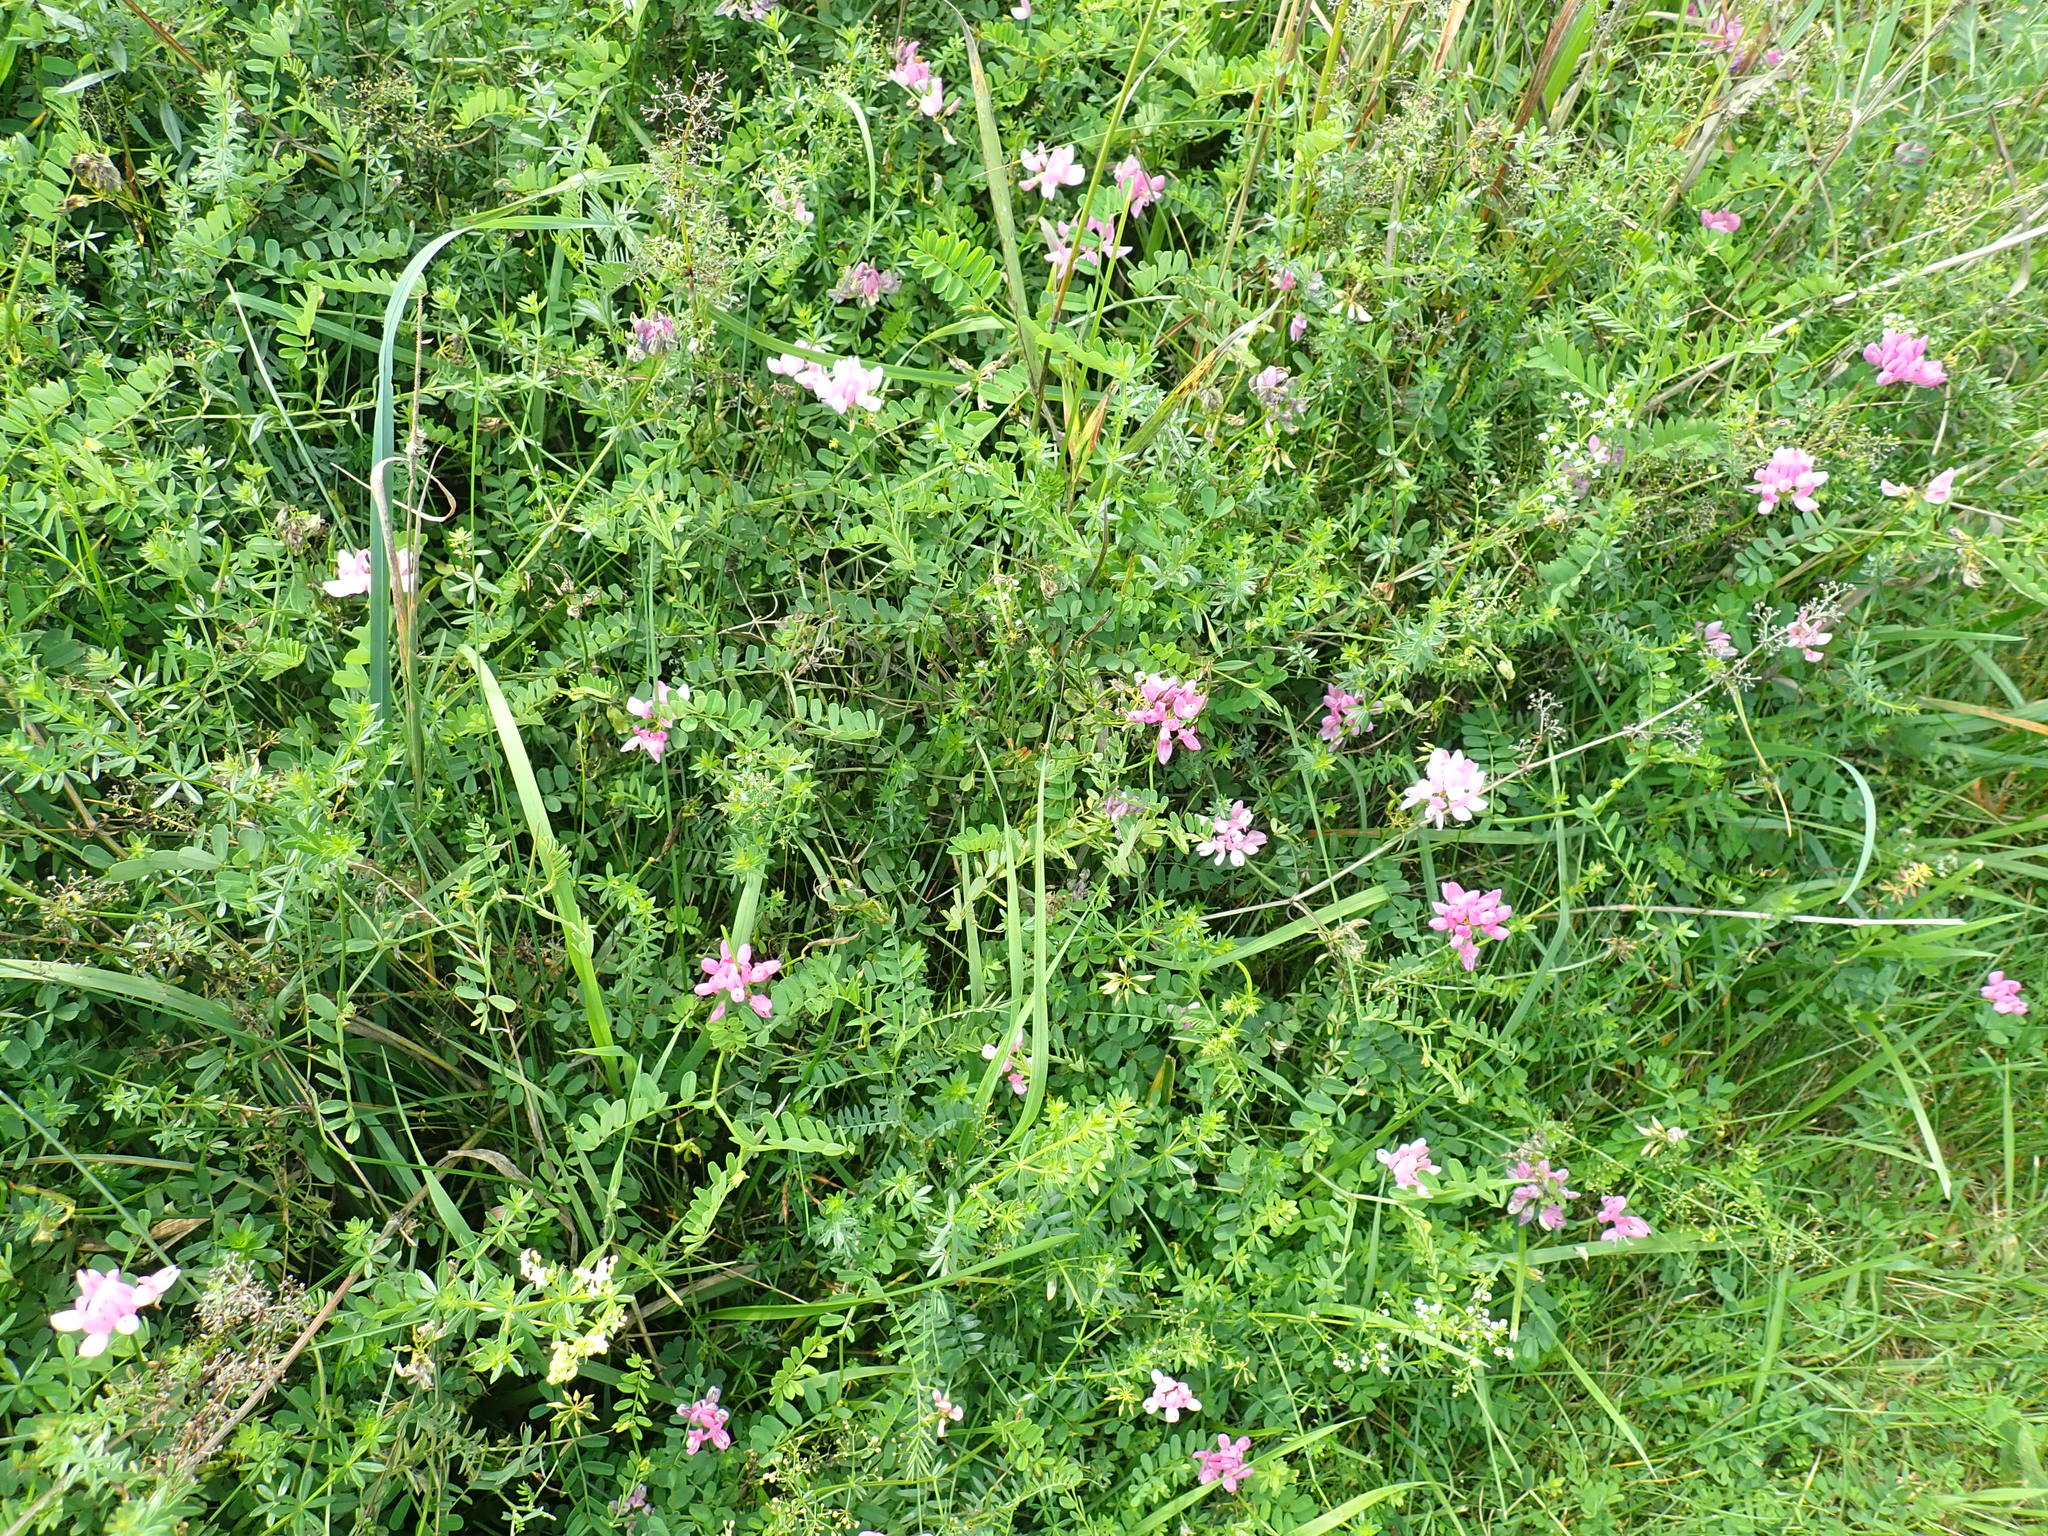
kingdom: Plantae
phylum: Tracheophyta
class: Magnoliopsida
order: Fabales
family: Fabaceae
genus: Coronilla
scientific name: Coronilla varia
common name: Crownvetch
